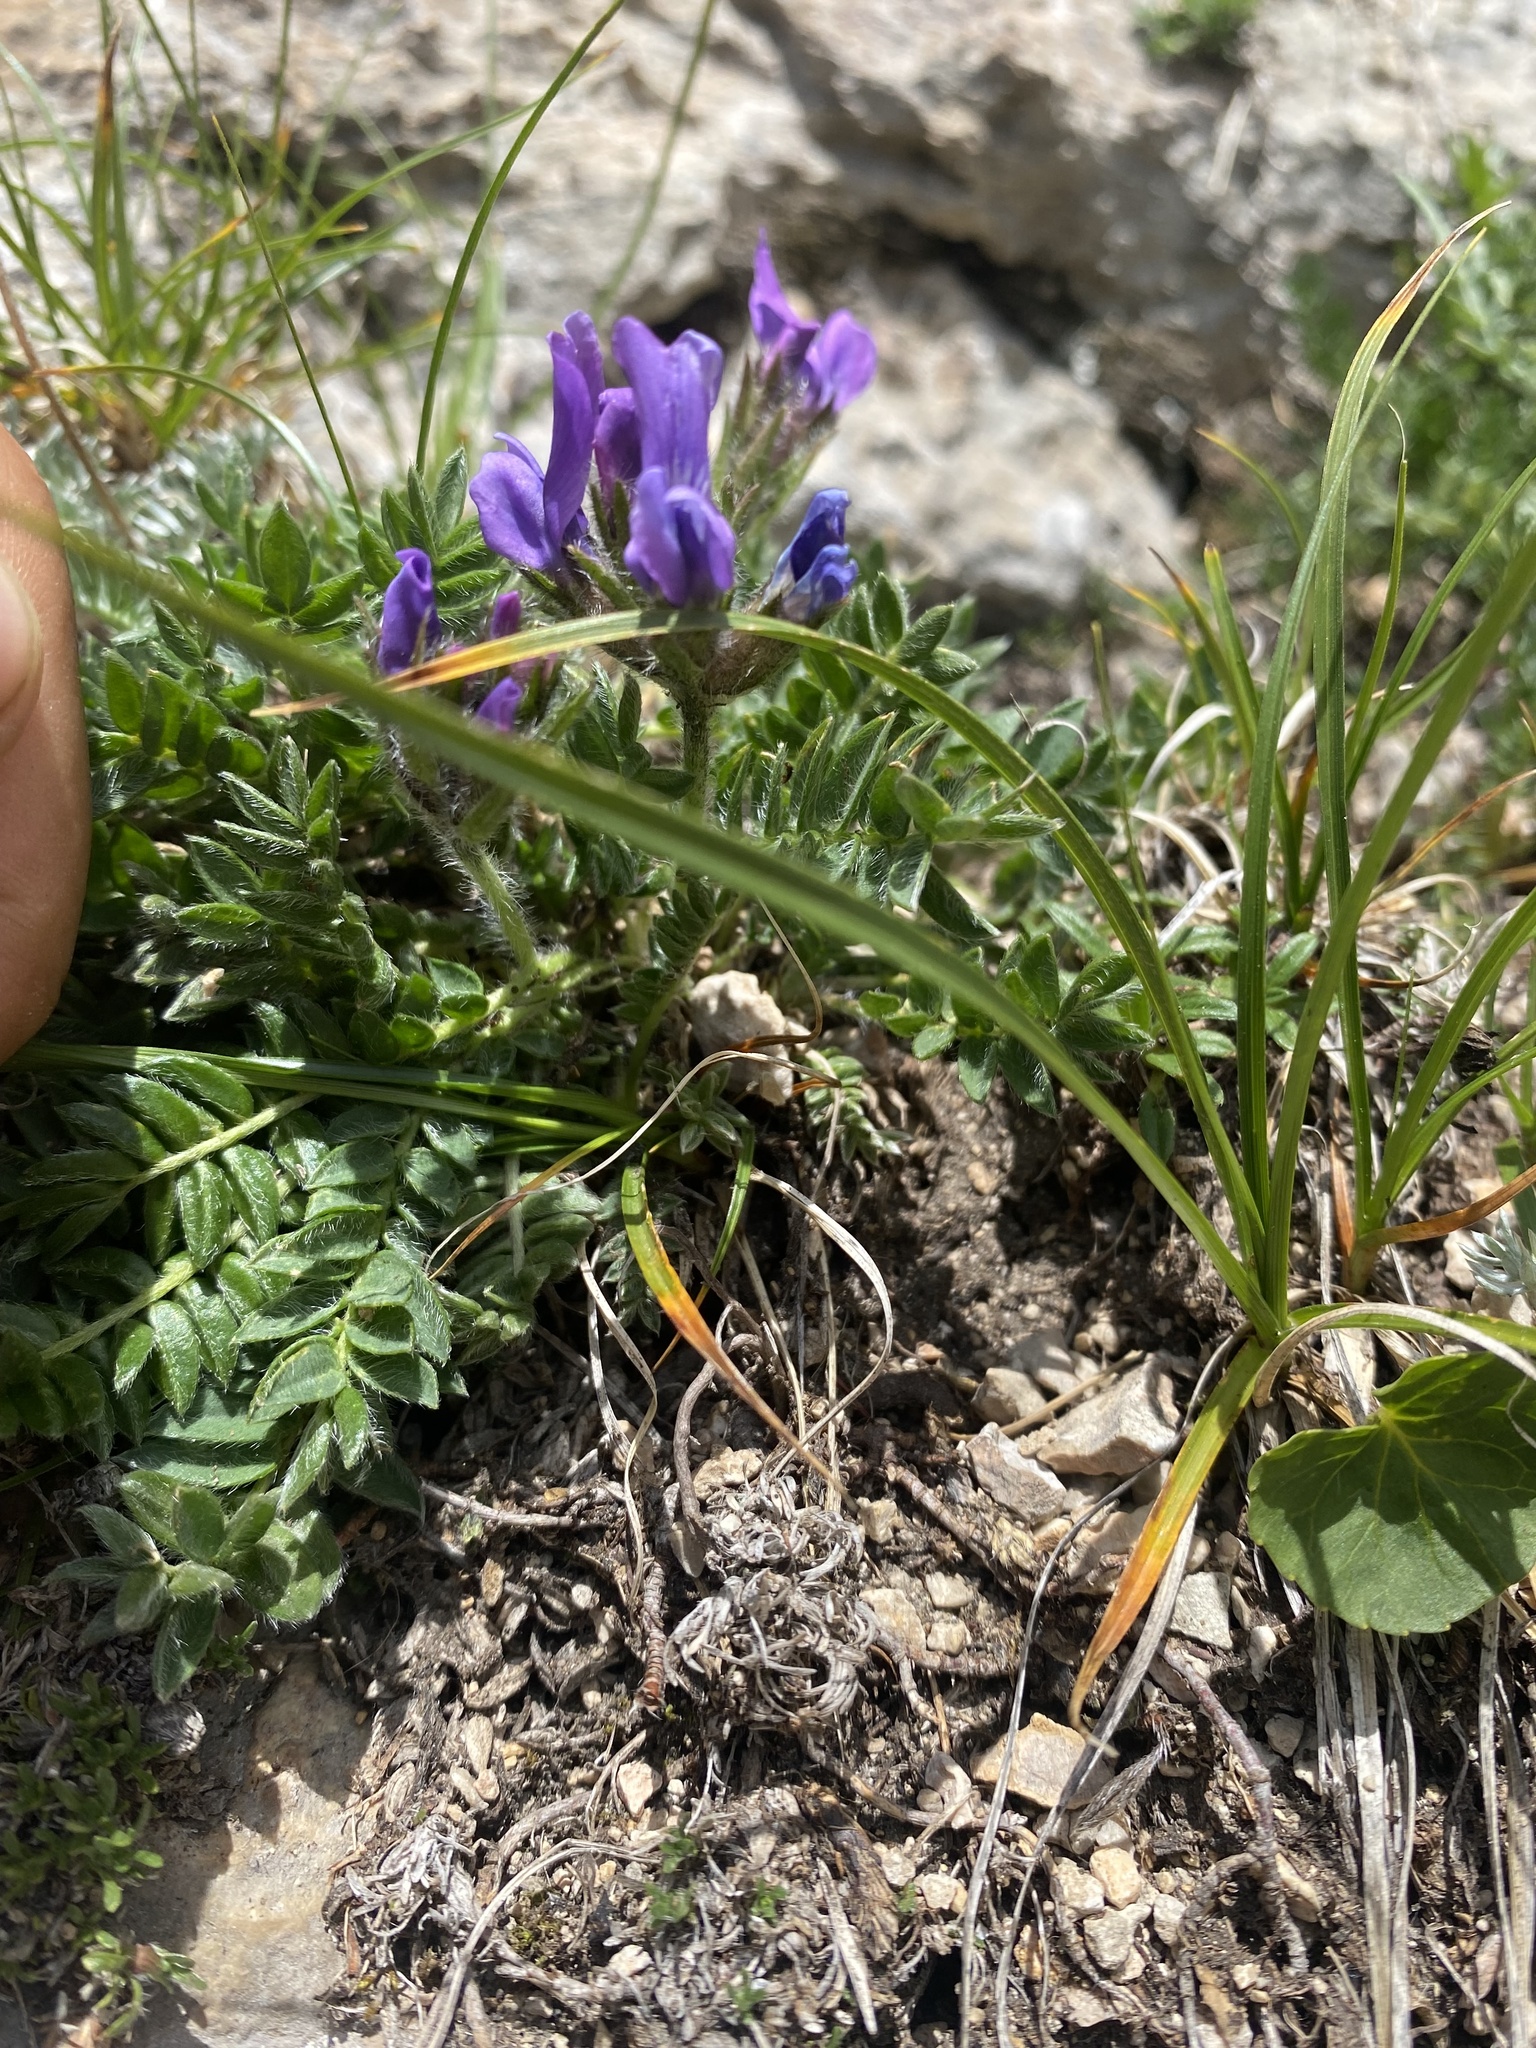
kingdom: Plantae
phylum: Tracheophyta
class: Magnoliopsida
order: Fabales
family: Fabaceae
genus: Oxytropis
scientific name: Oxytropis lazica
